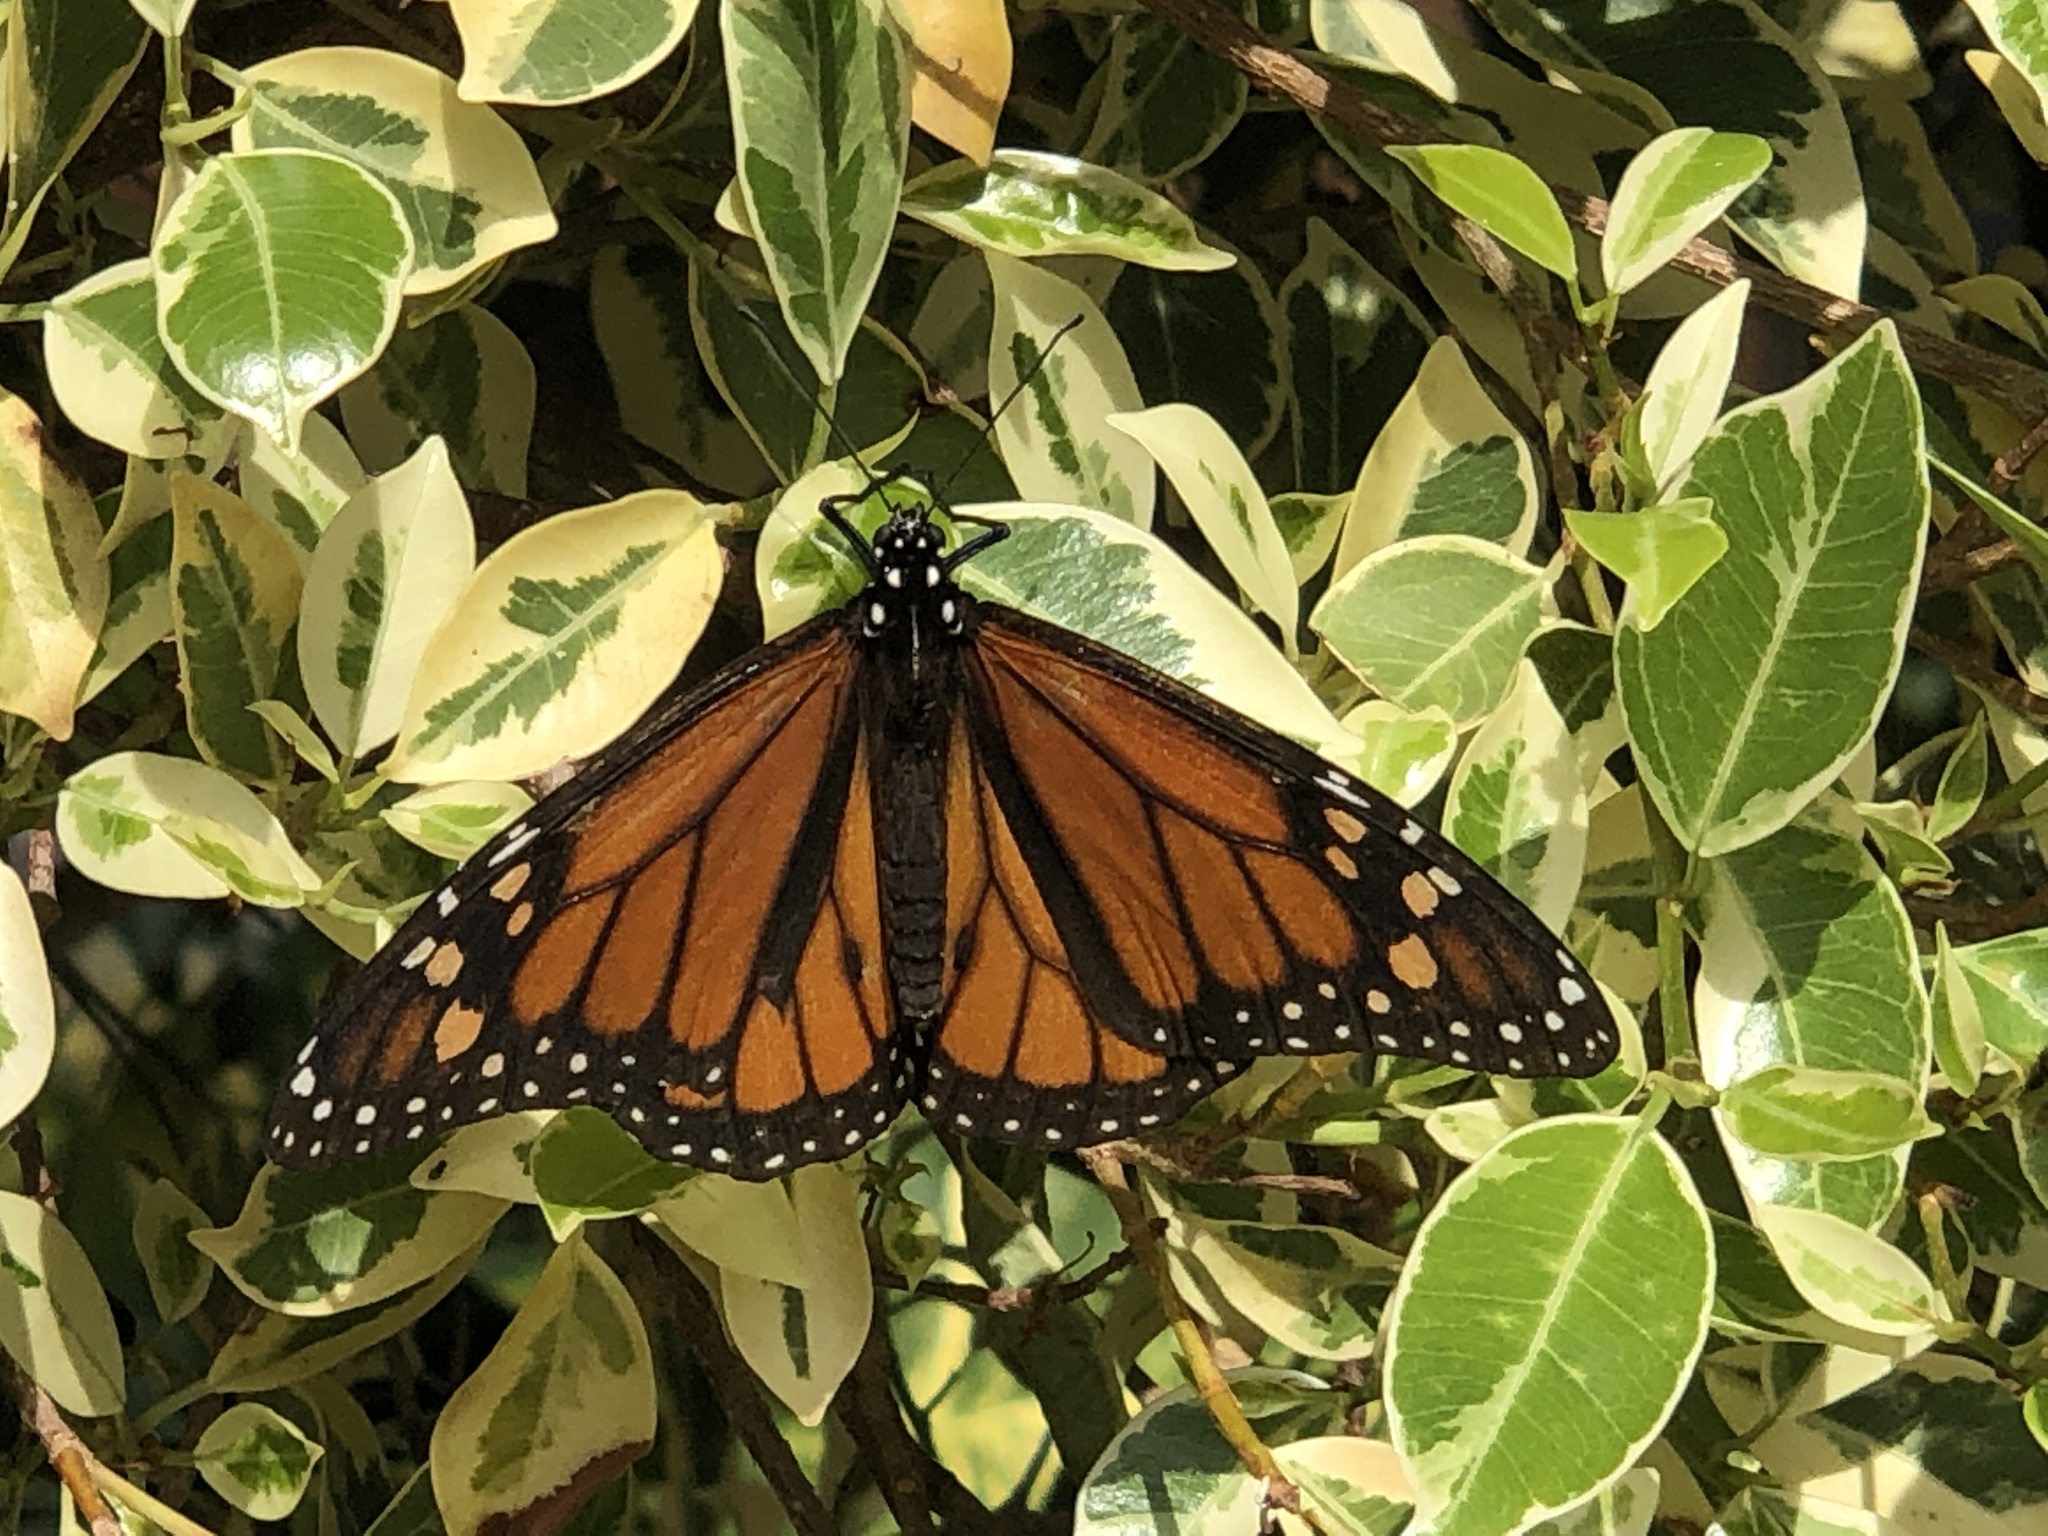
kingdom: Animalia
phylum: Arthropoda
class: Insecta
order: Lepidoptera
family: Nymphalidae
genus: Danaus
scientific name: Danaus plexippus
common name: Monarch
